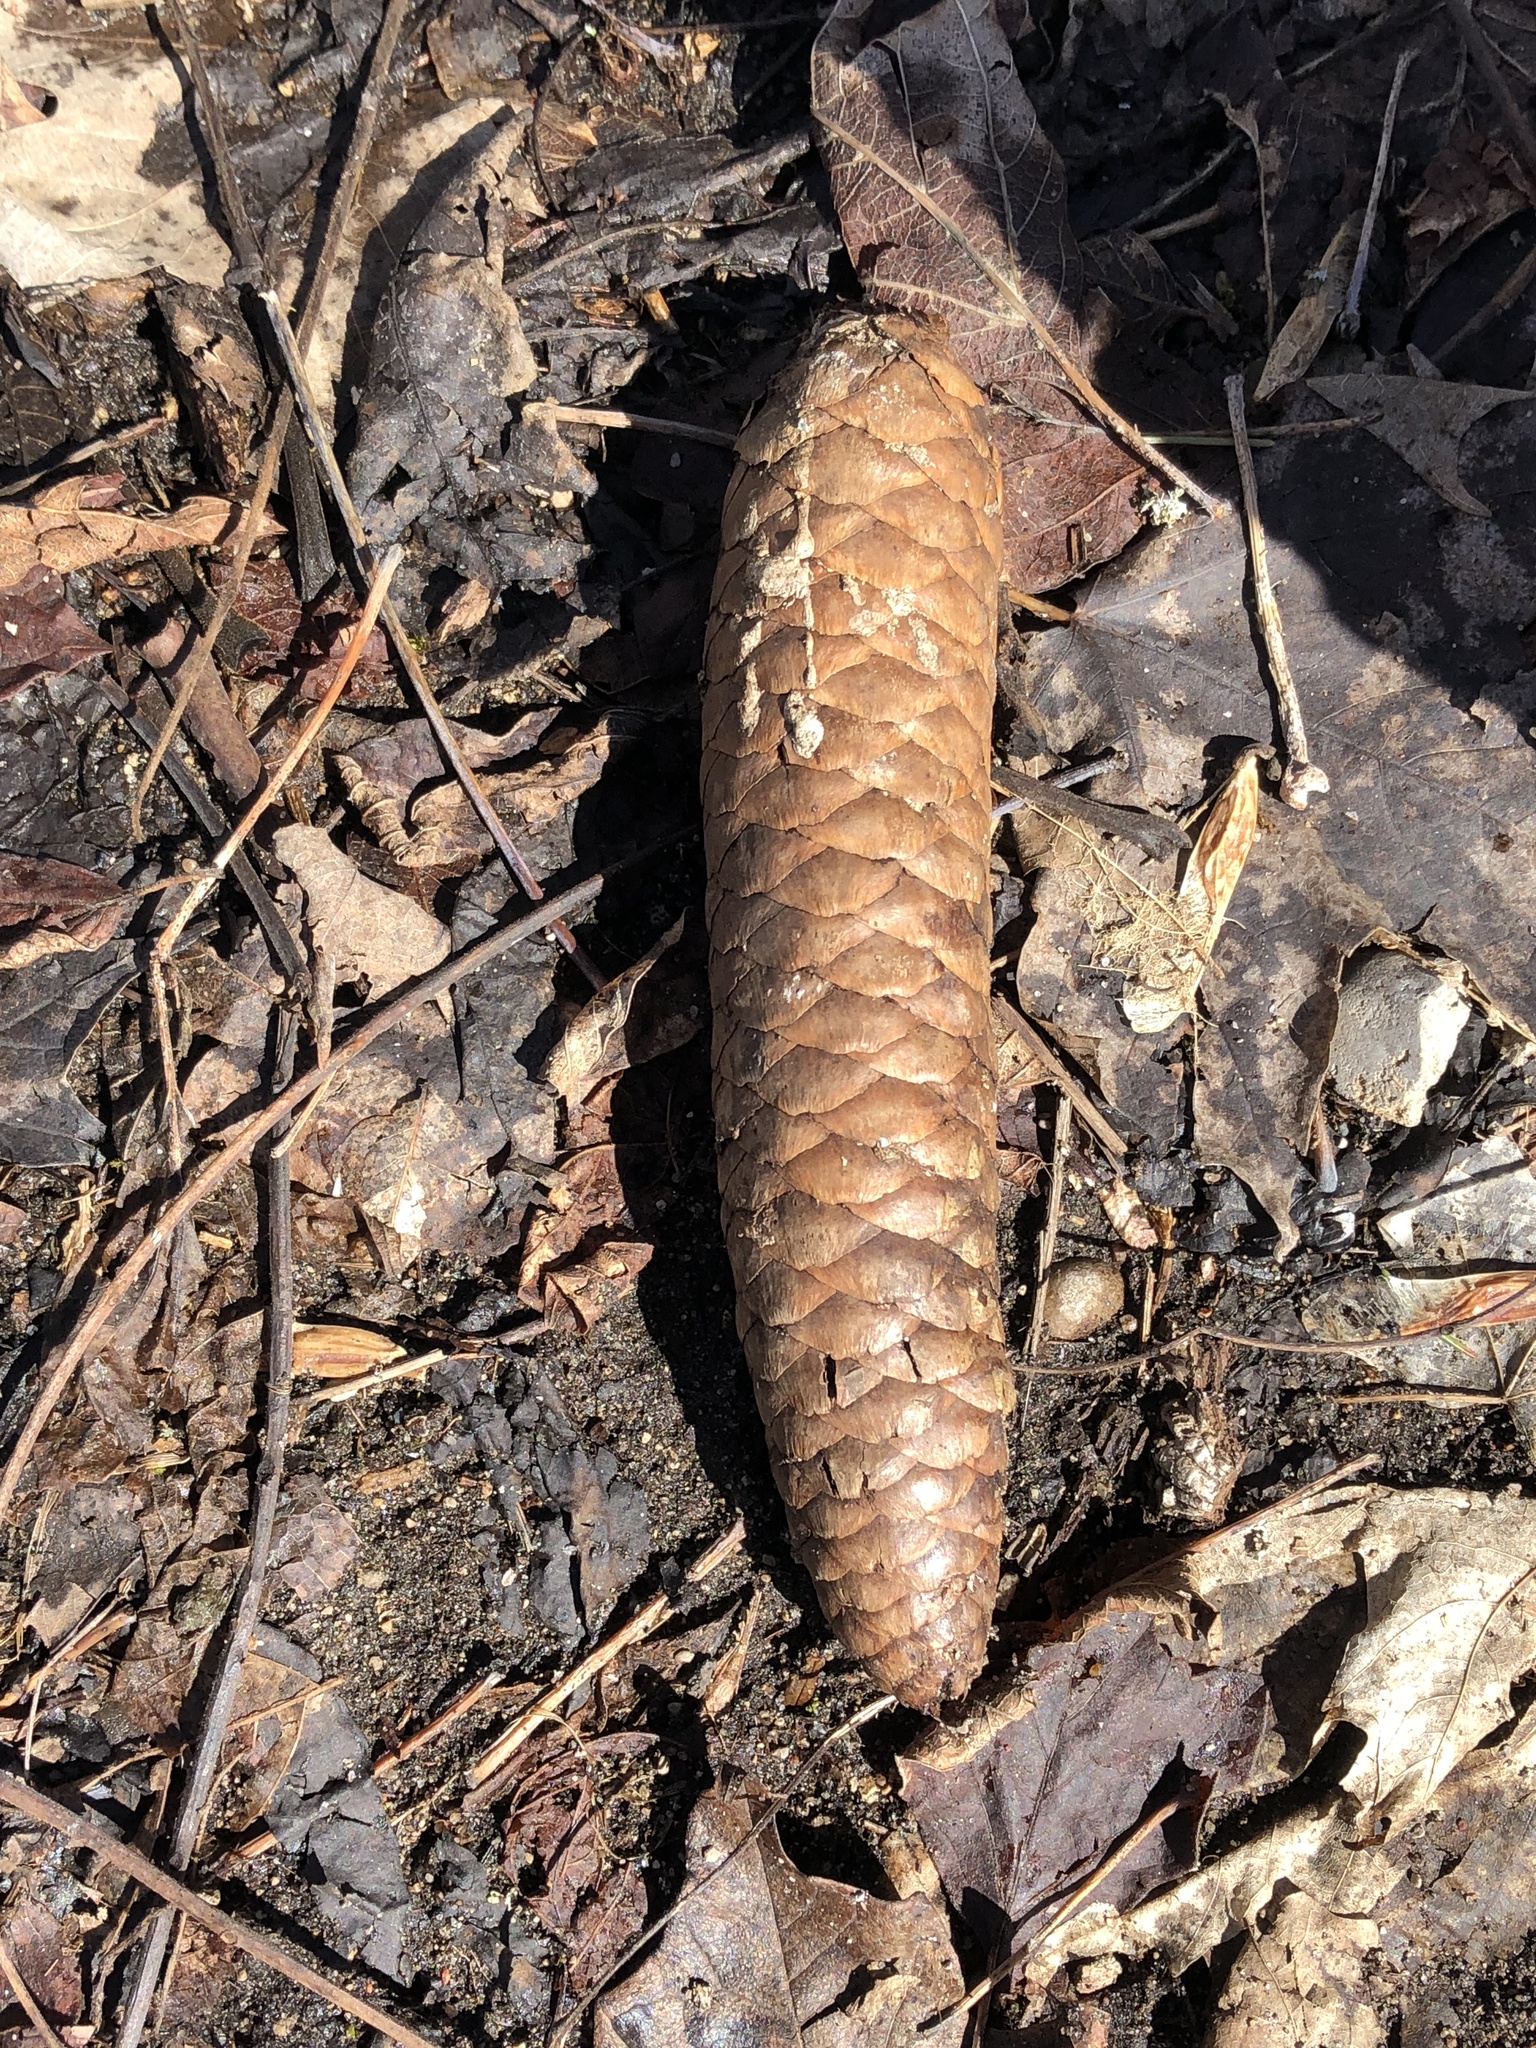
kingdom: Plantae
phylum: Tracheophyta
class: Pinopsida
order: Pinales
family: Pinaceae
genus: Picea
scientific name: Picea abies
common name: Norway spruce
